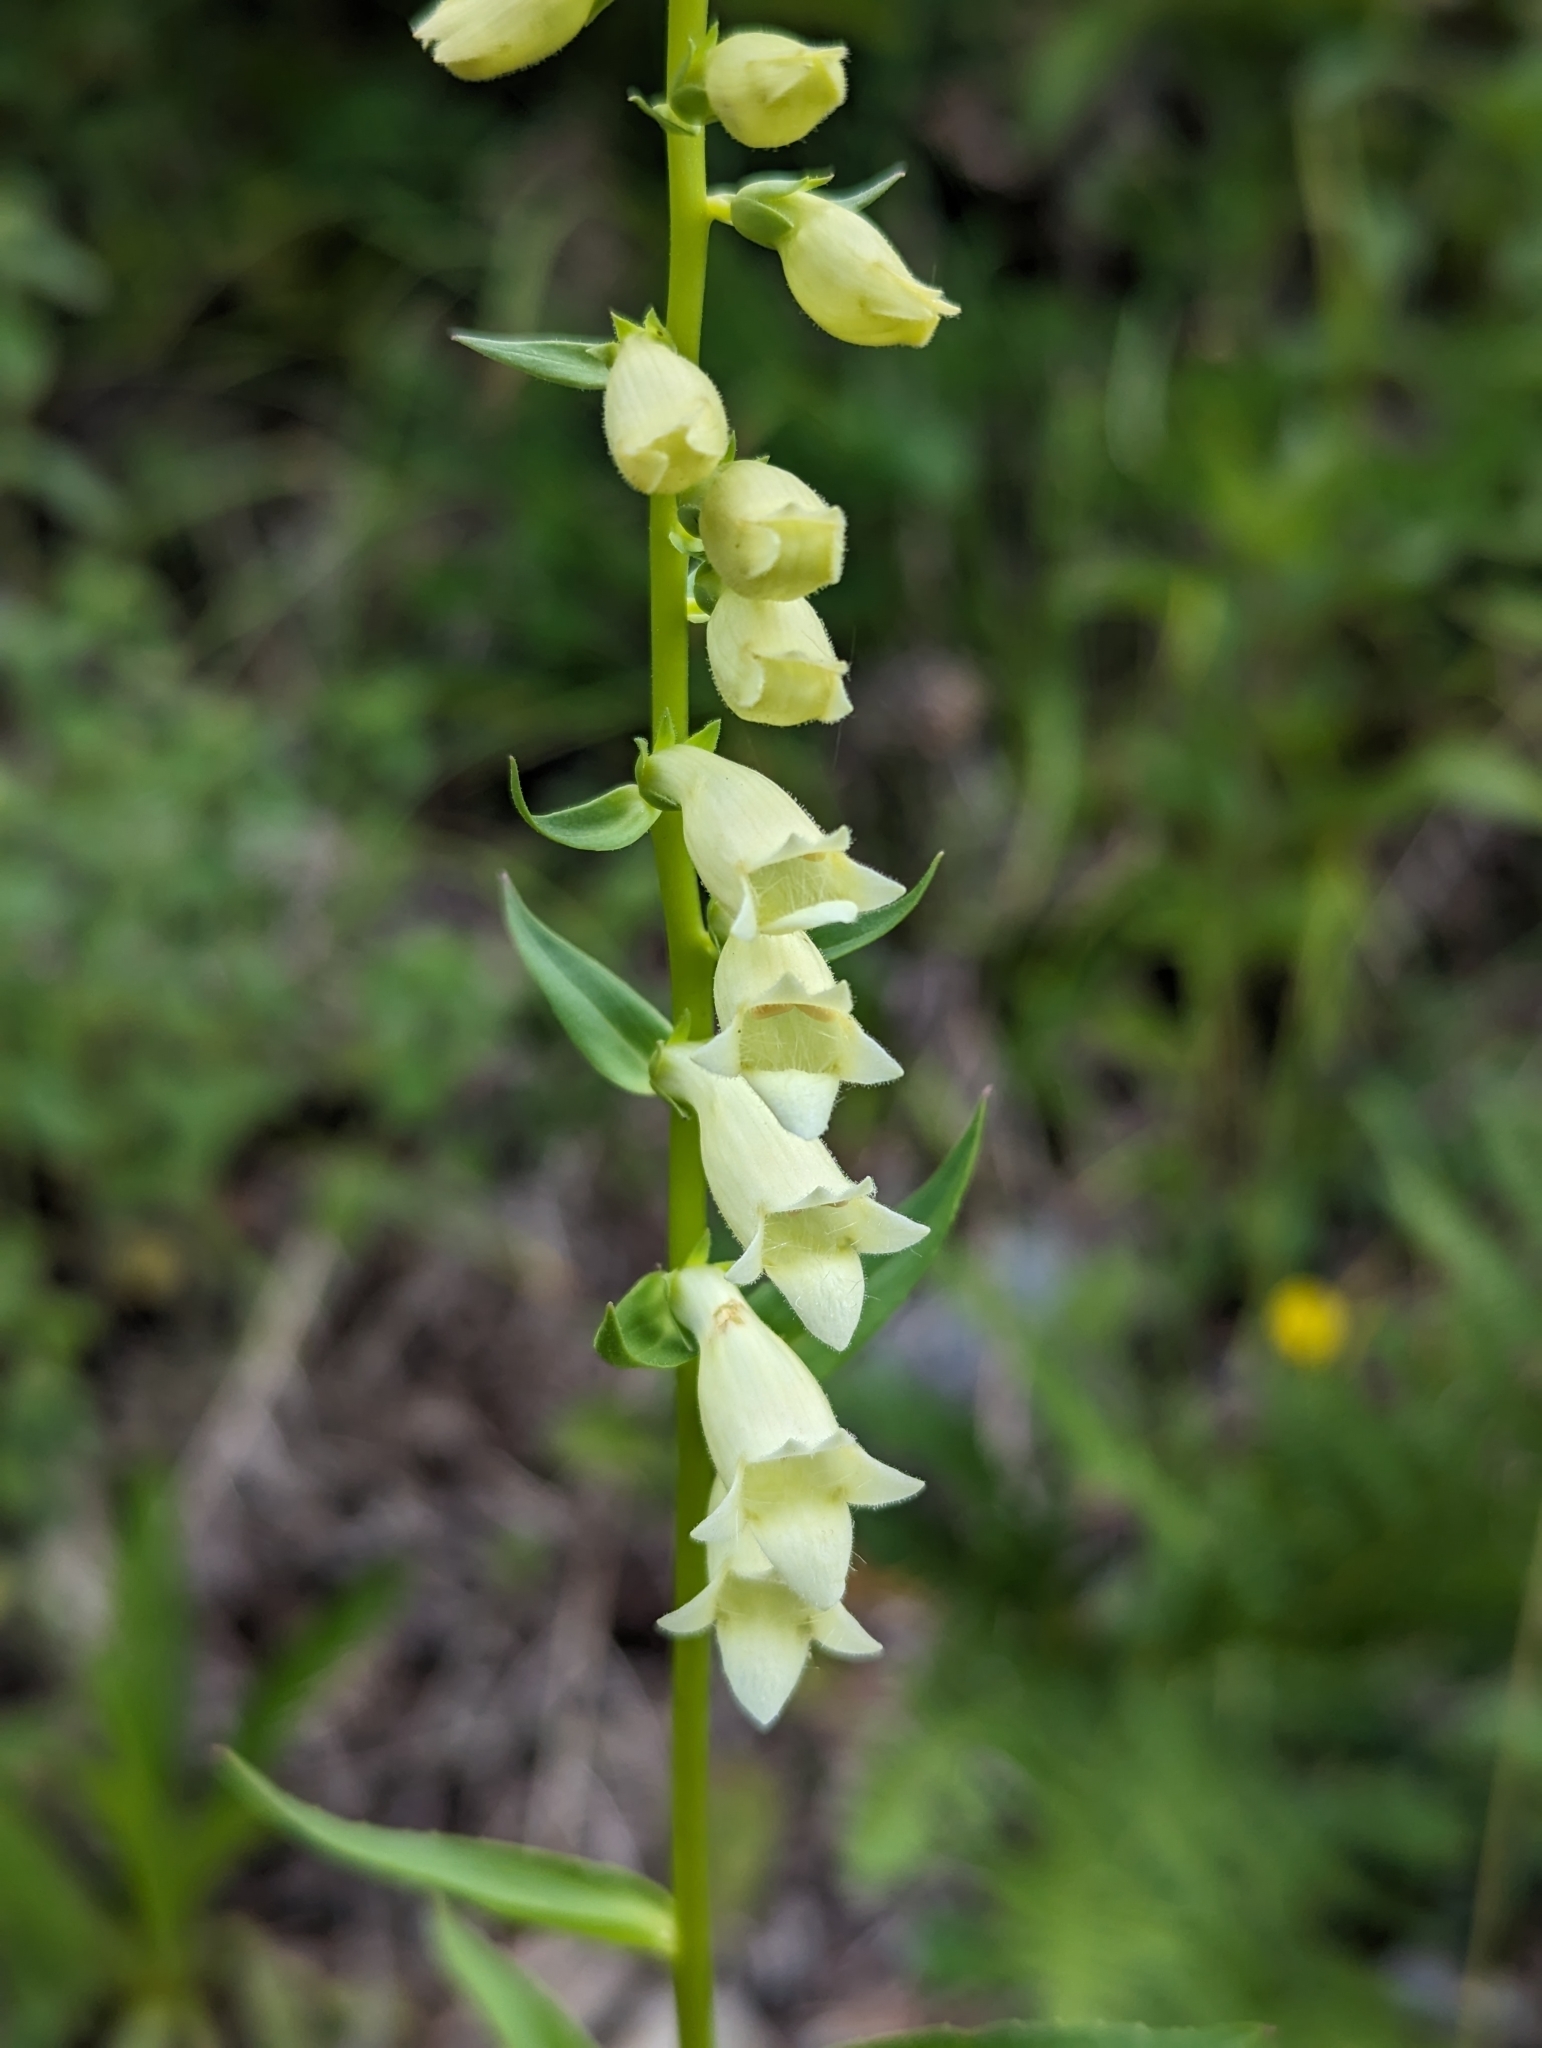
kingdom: Plantae
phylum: Tracheophyta
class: Magnoliopsida
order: Lamiales
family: Plantaginaceae
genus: Digitalis
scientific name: Digitalis lutea
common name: Straw foxglove
